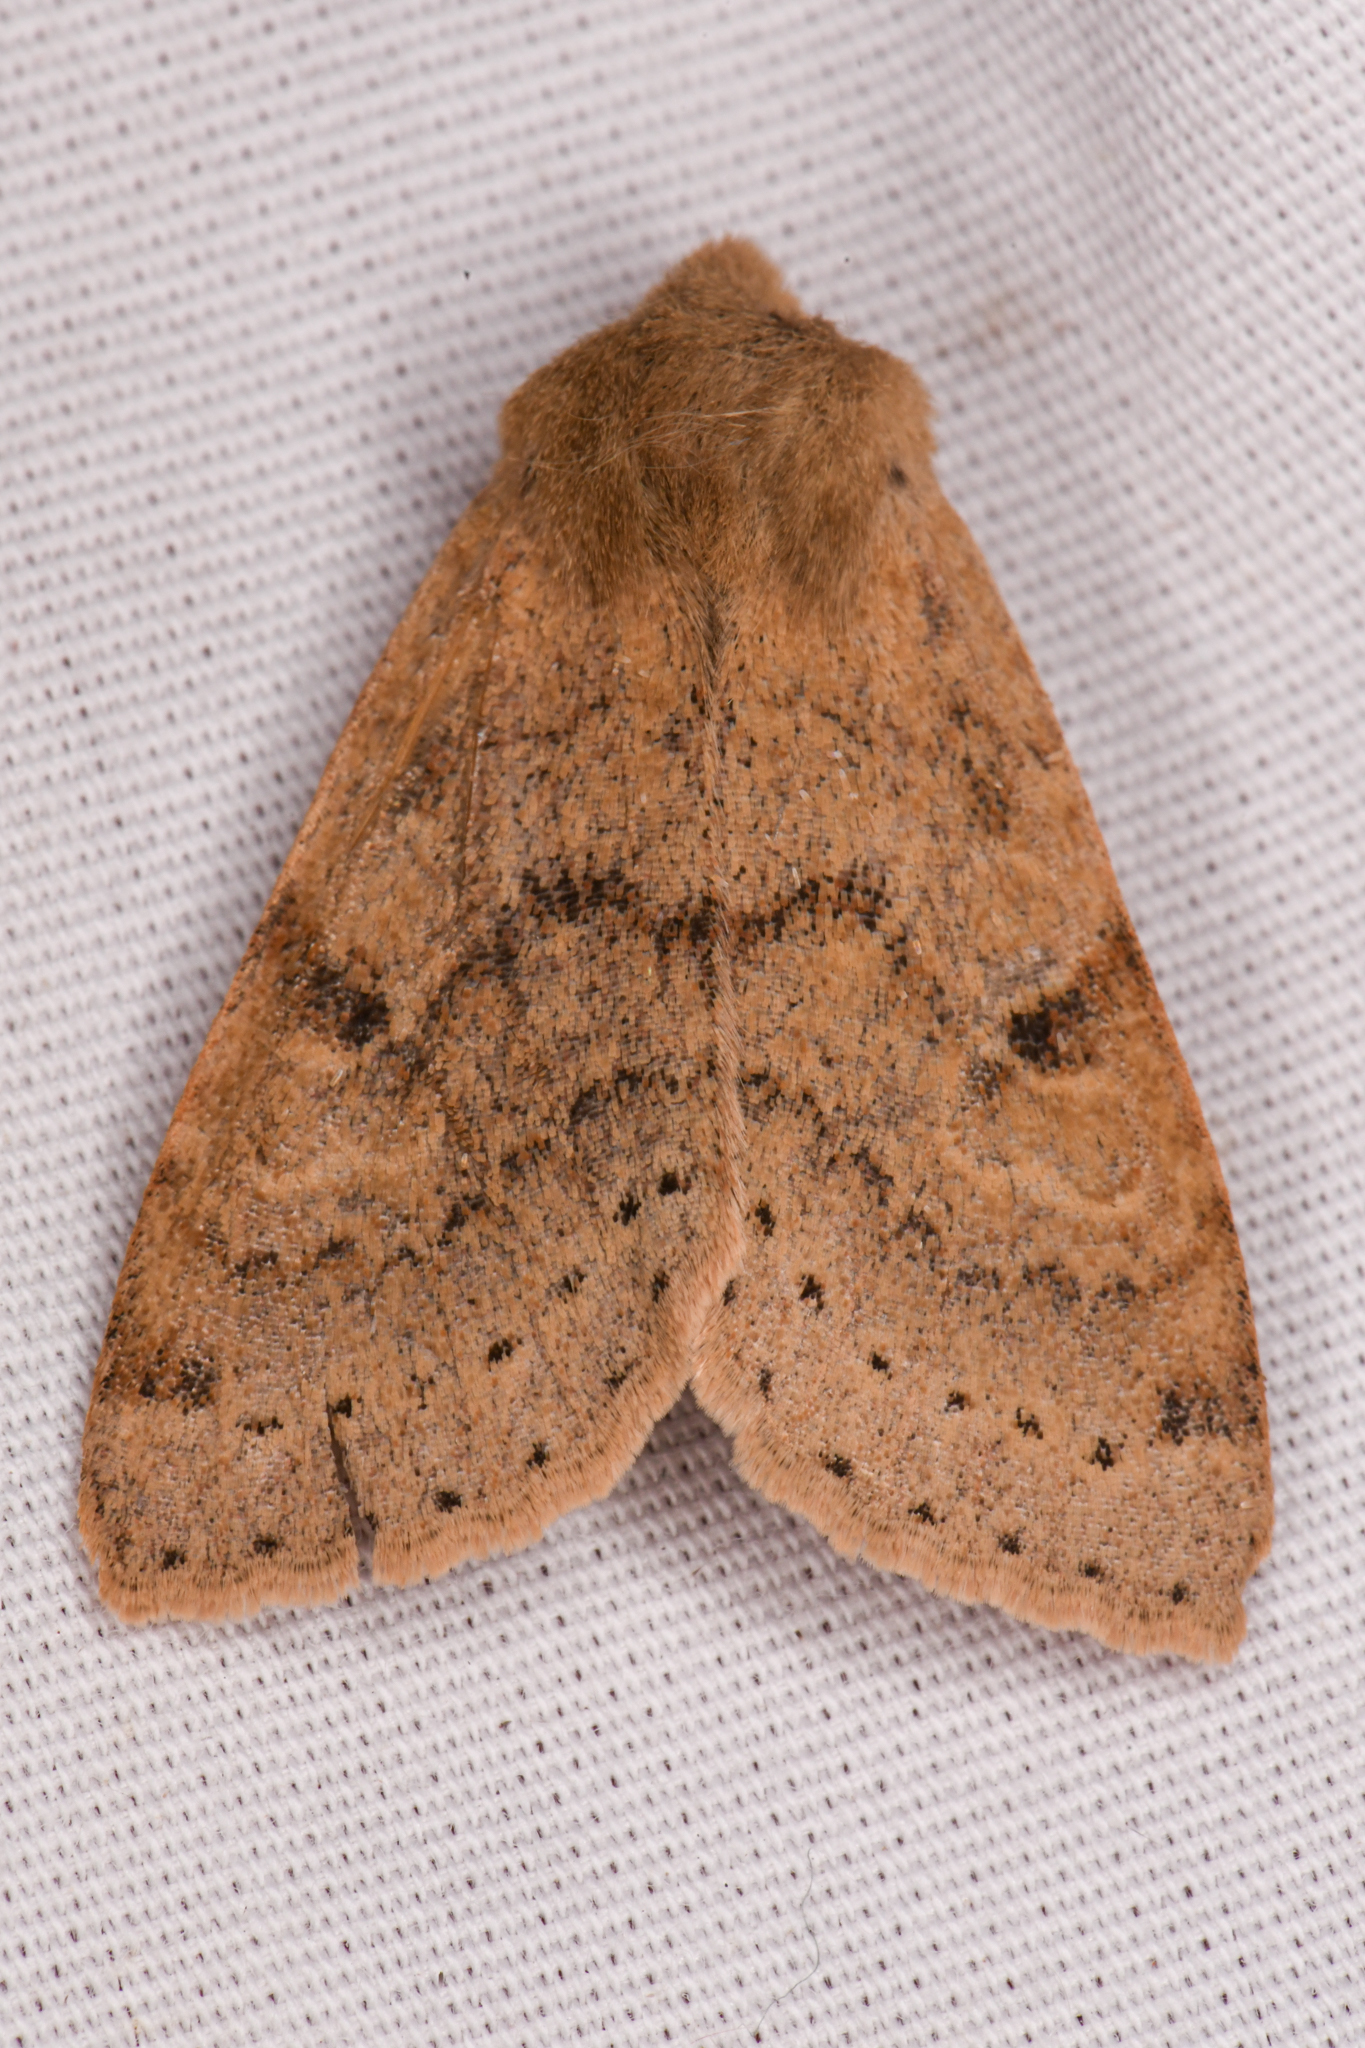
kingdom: Animalia
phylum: Arthropoda
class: Insecta
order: Lepidoptera
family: Noctuidae
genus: Orthosia
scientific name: Orthosia arthrolita
